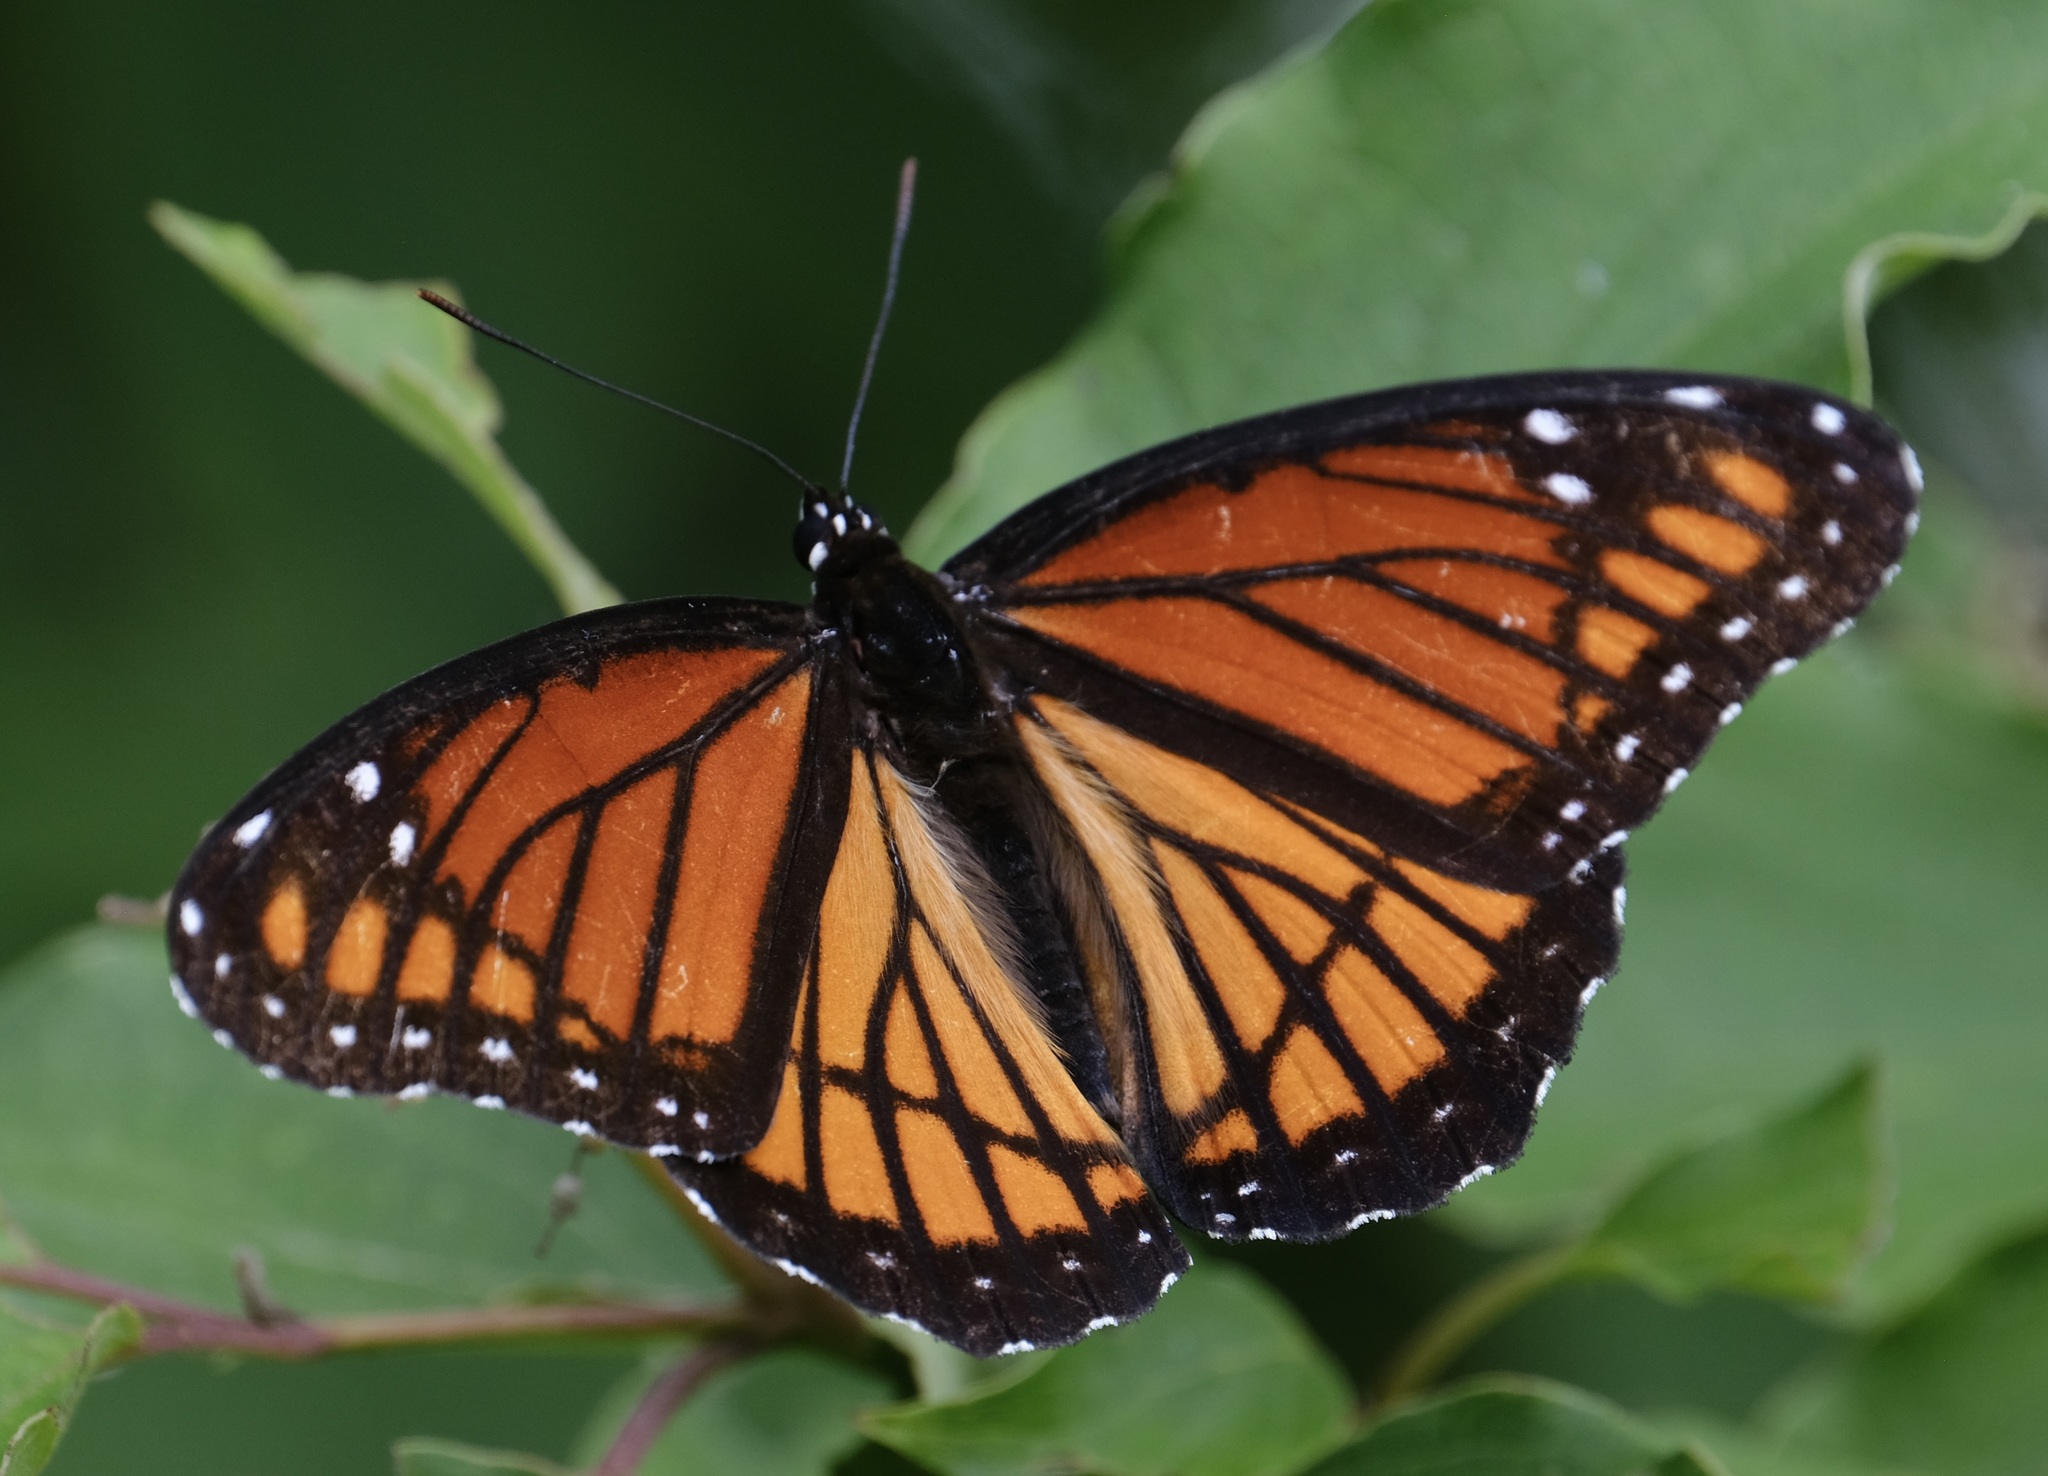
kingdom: Animalia
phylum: Arthropoda
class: Insecta
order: Lepidoptera
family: Nymphalidae
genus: Limenitis
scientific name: Limenitis archippus
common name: Viceroy
